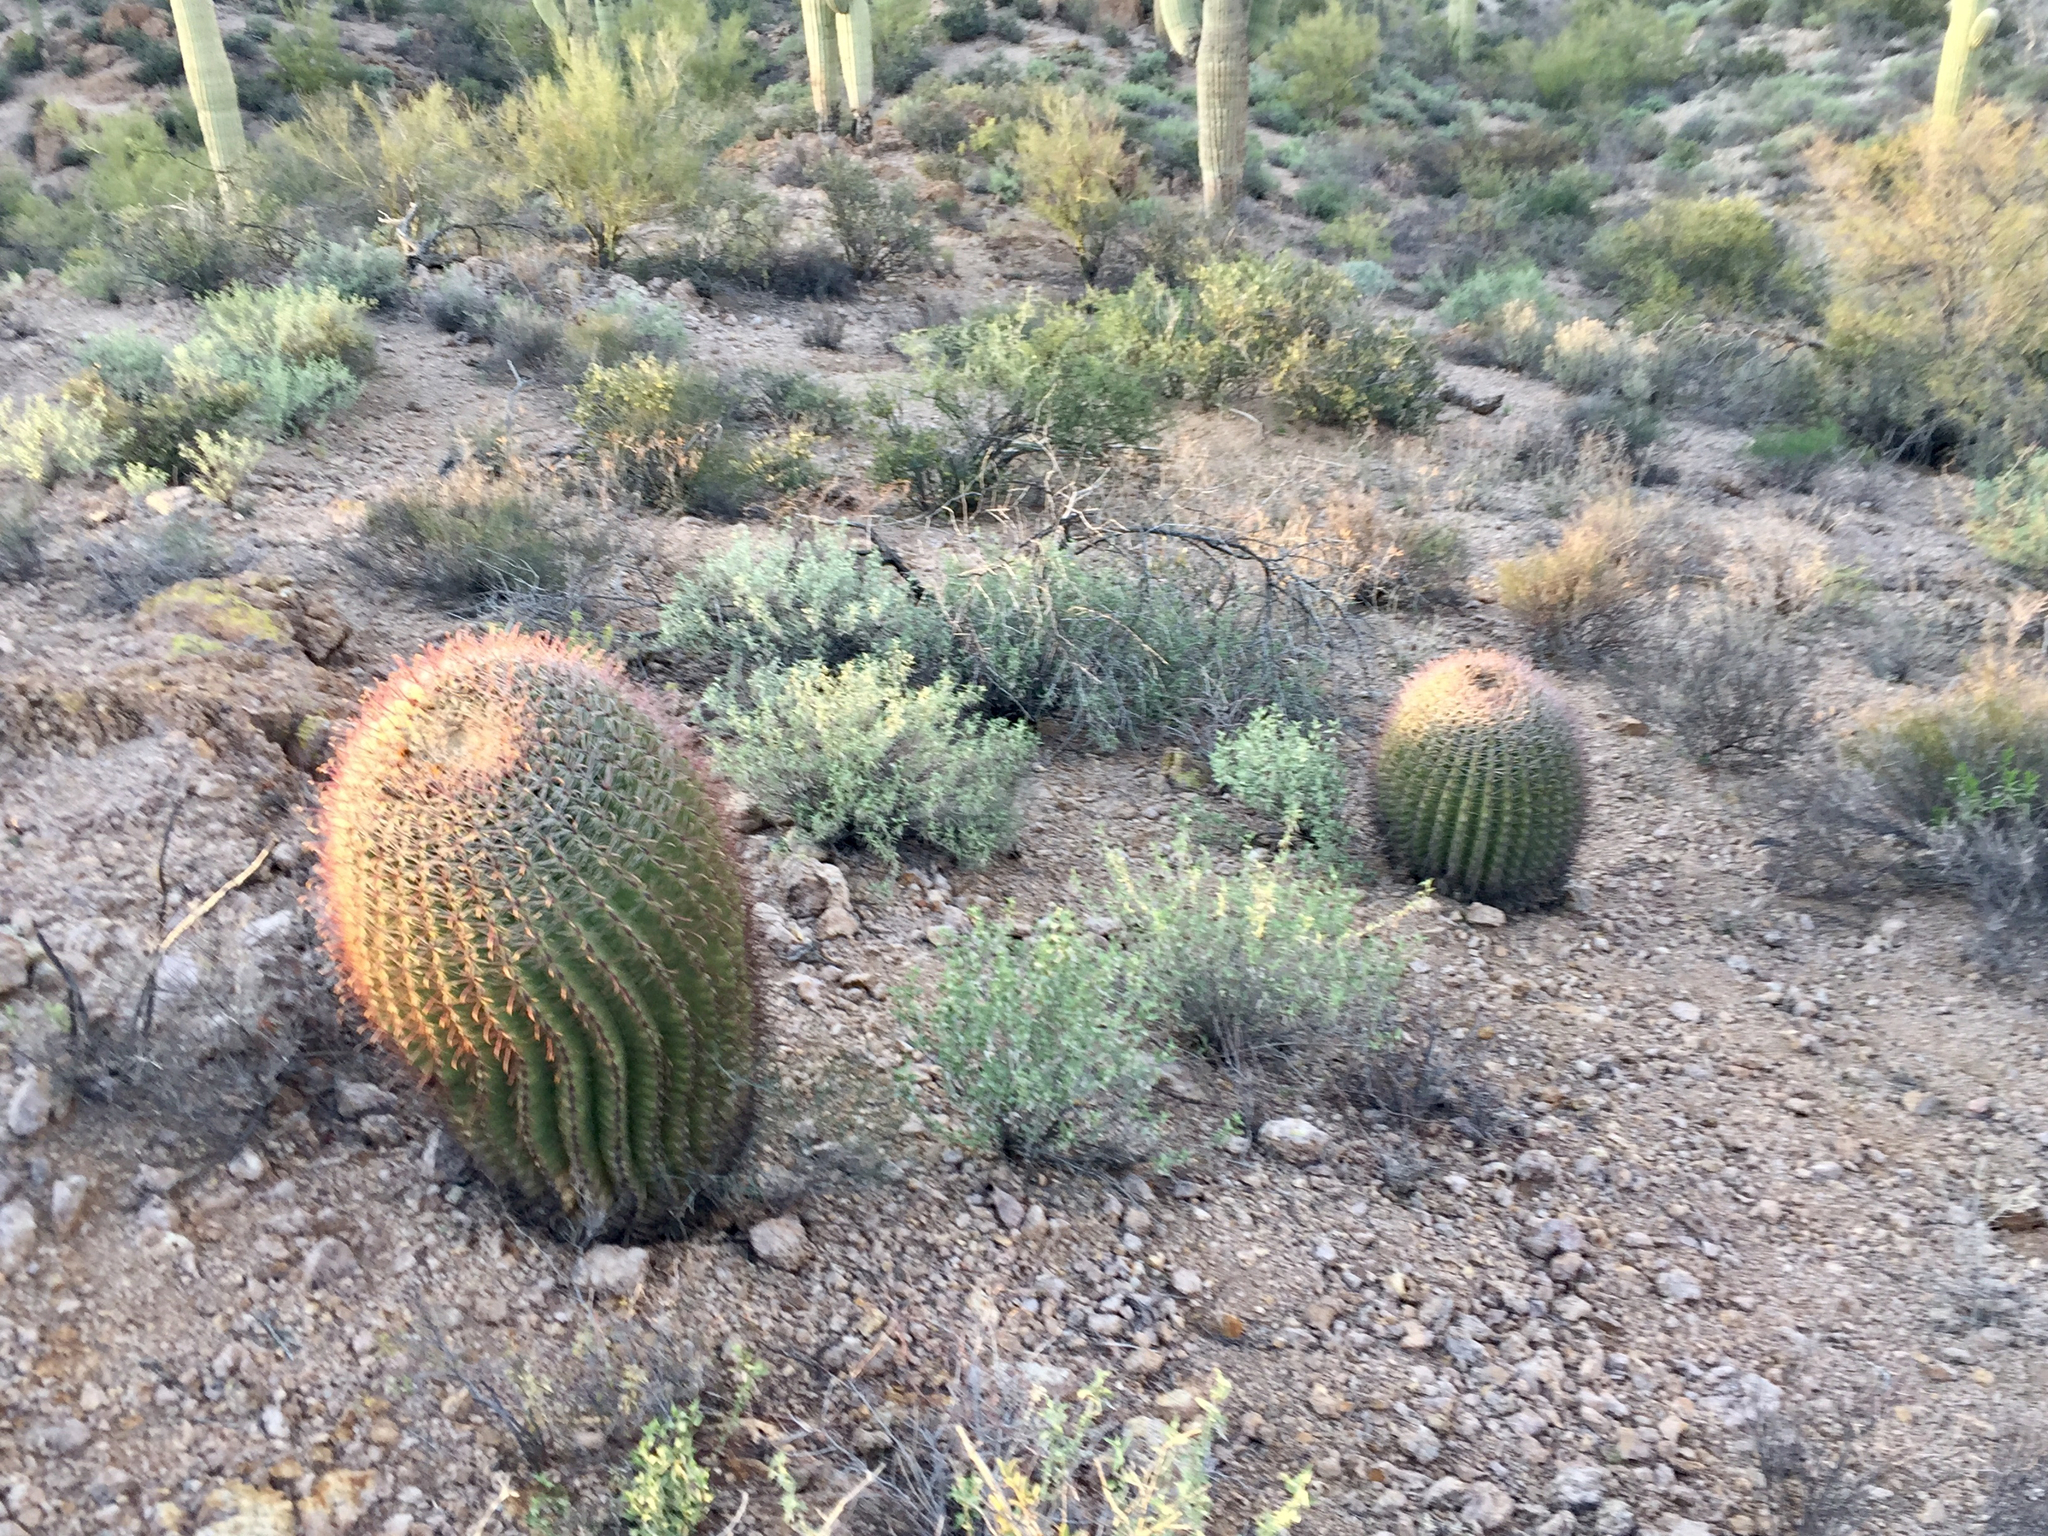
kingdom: Plantae
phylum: Tracheophyta
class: Magnoliopsida
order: Caryophyllales
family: Cactaceae
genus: Ferocactus
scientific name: Ferocactus wislizeni
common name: Candy barrel cactus
